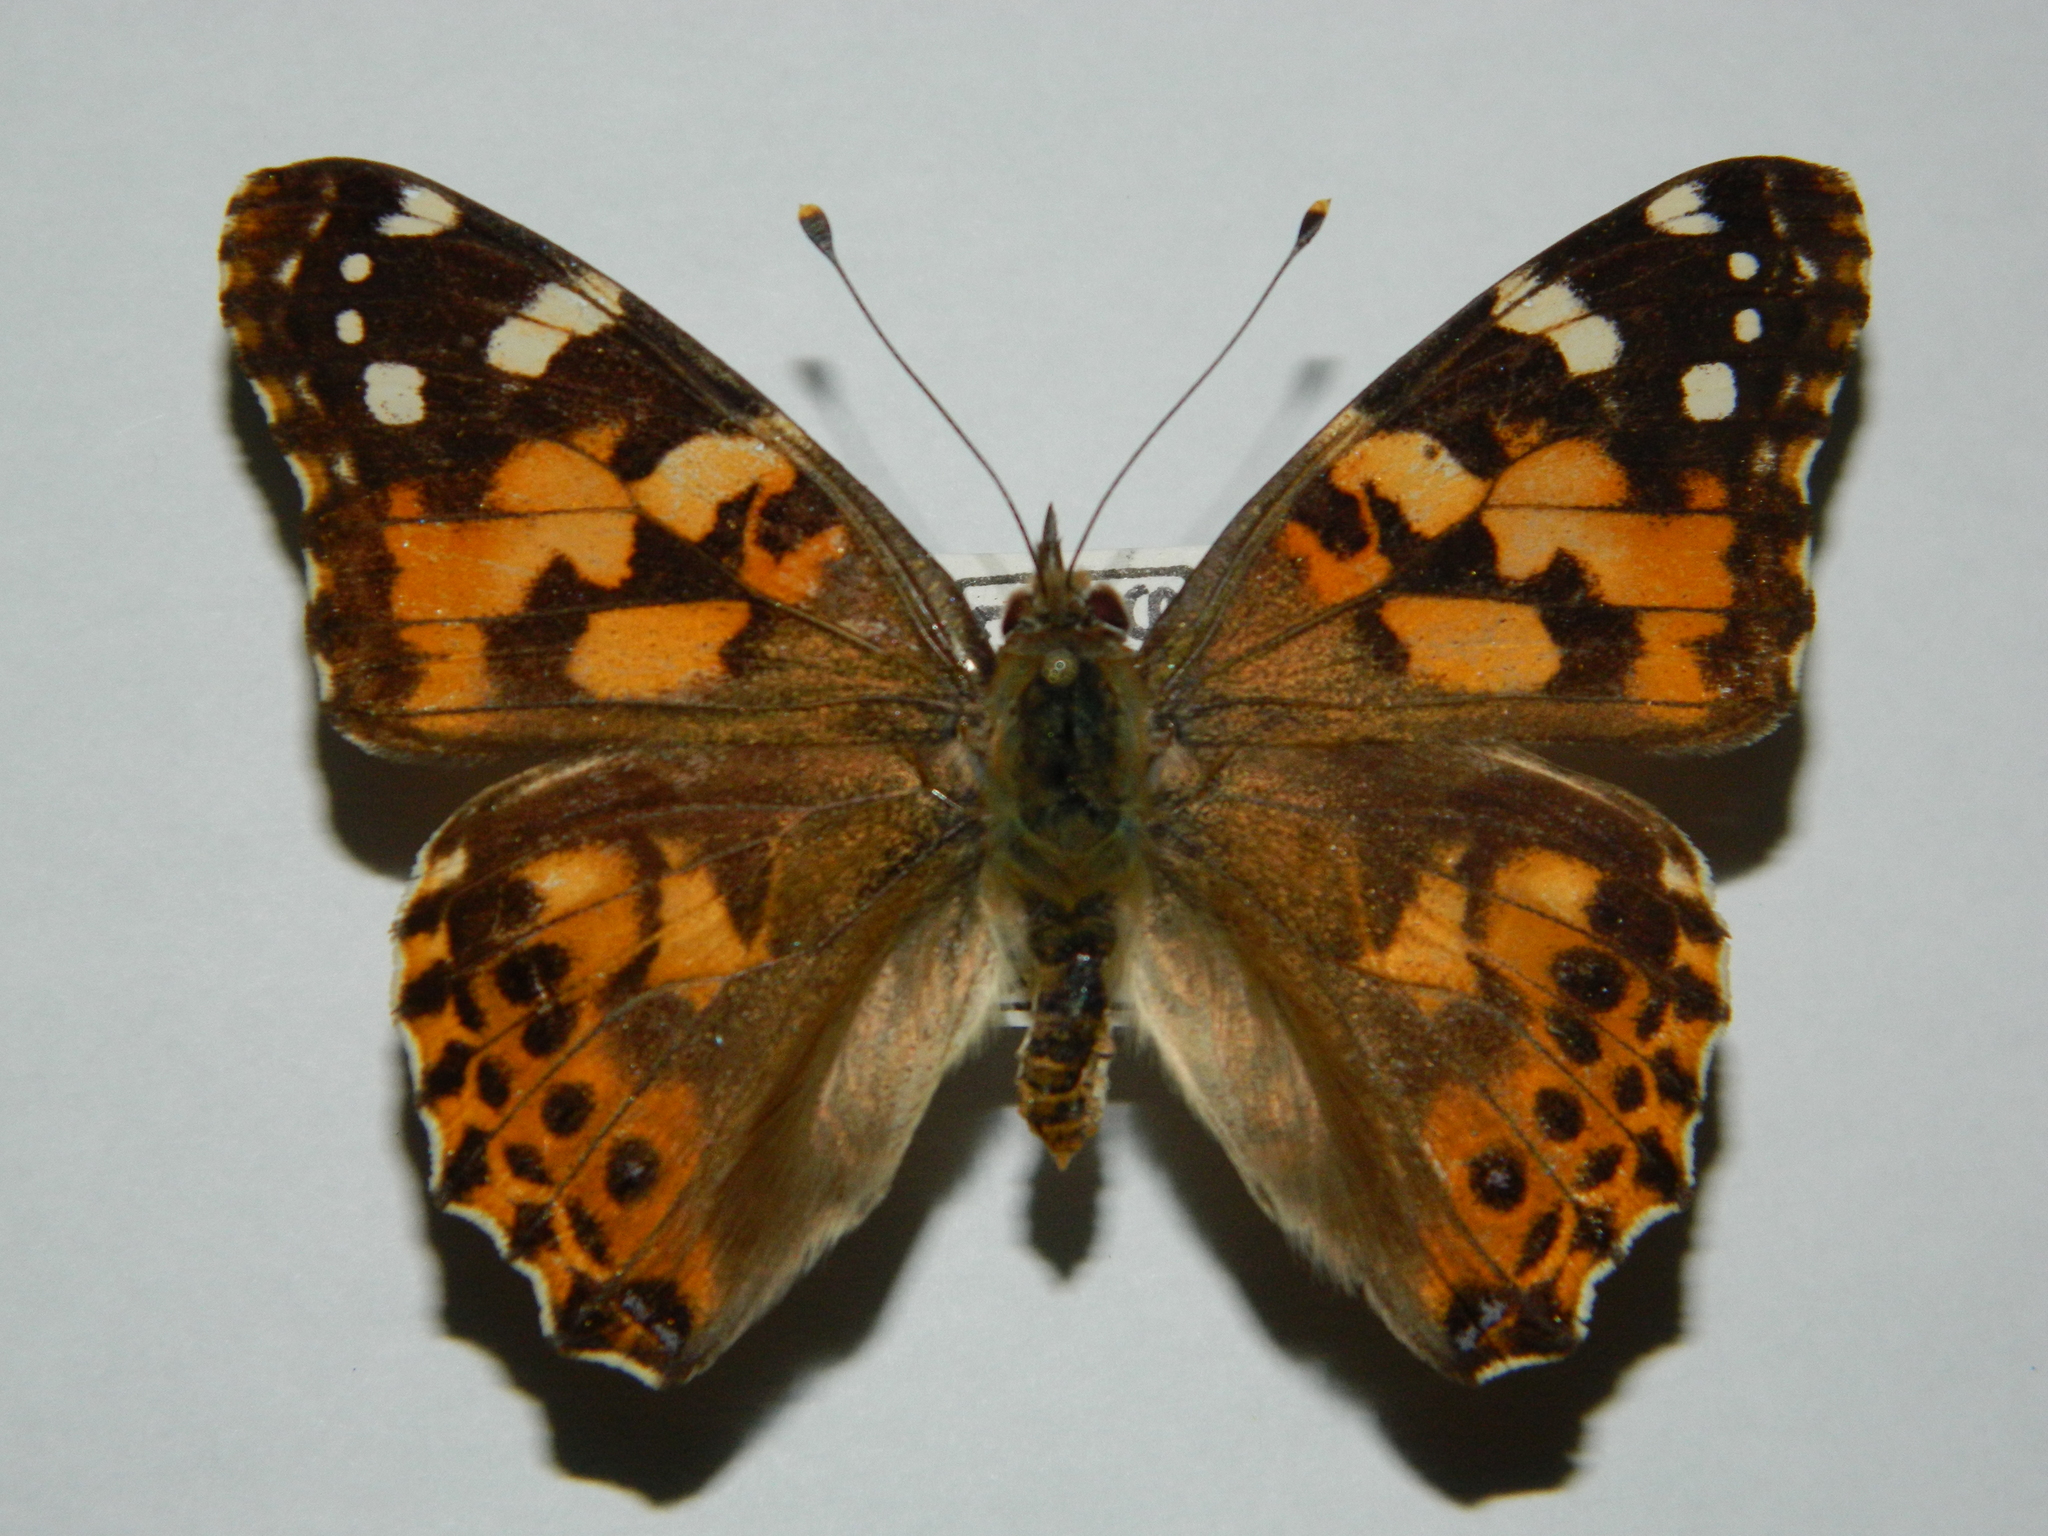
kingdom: Animalia
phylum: Arthropoda
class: Insecta
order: Lepidoptera
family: Nymphalidae
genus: Vanessa
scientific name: Vanessa cardui
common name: Painted lady
